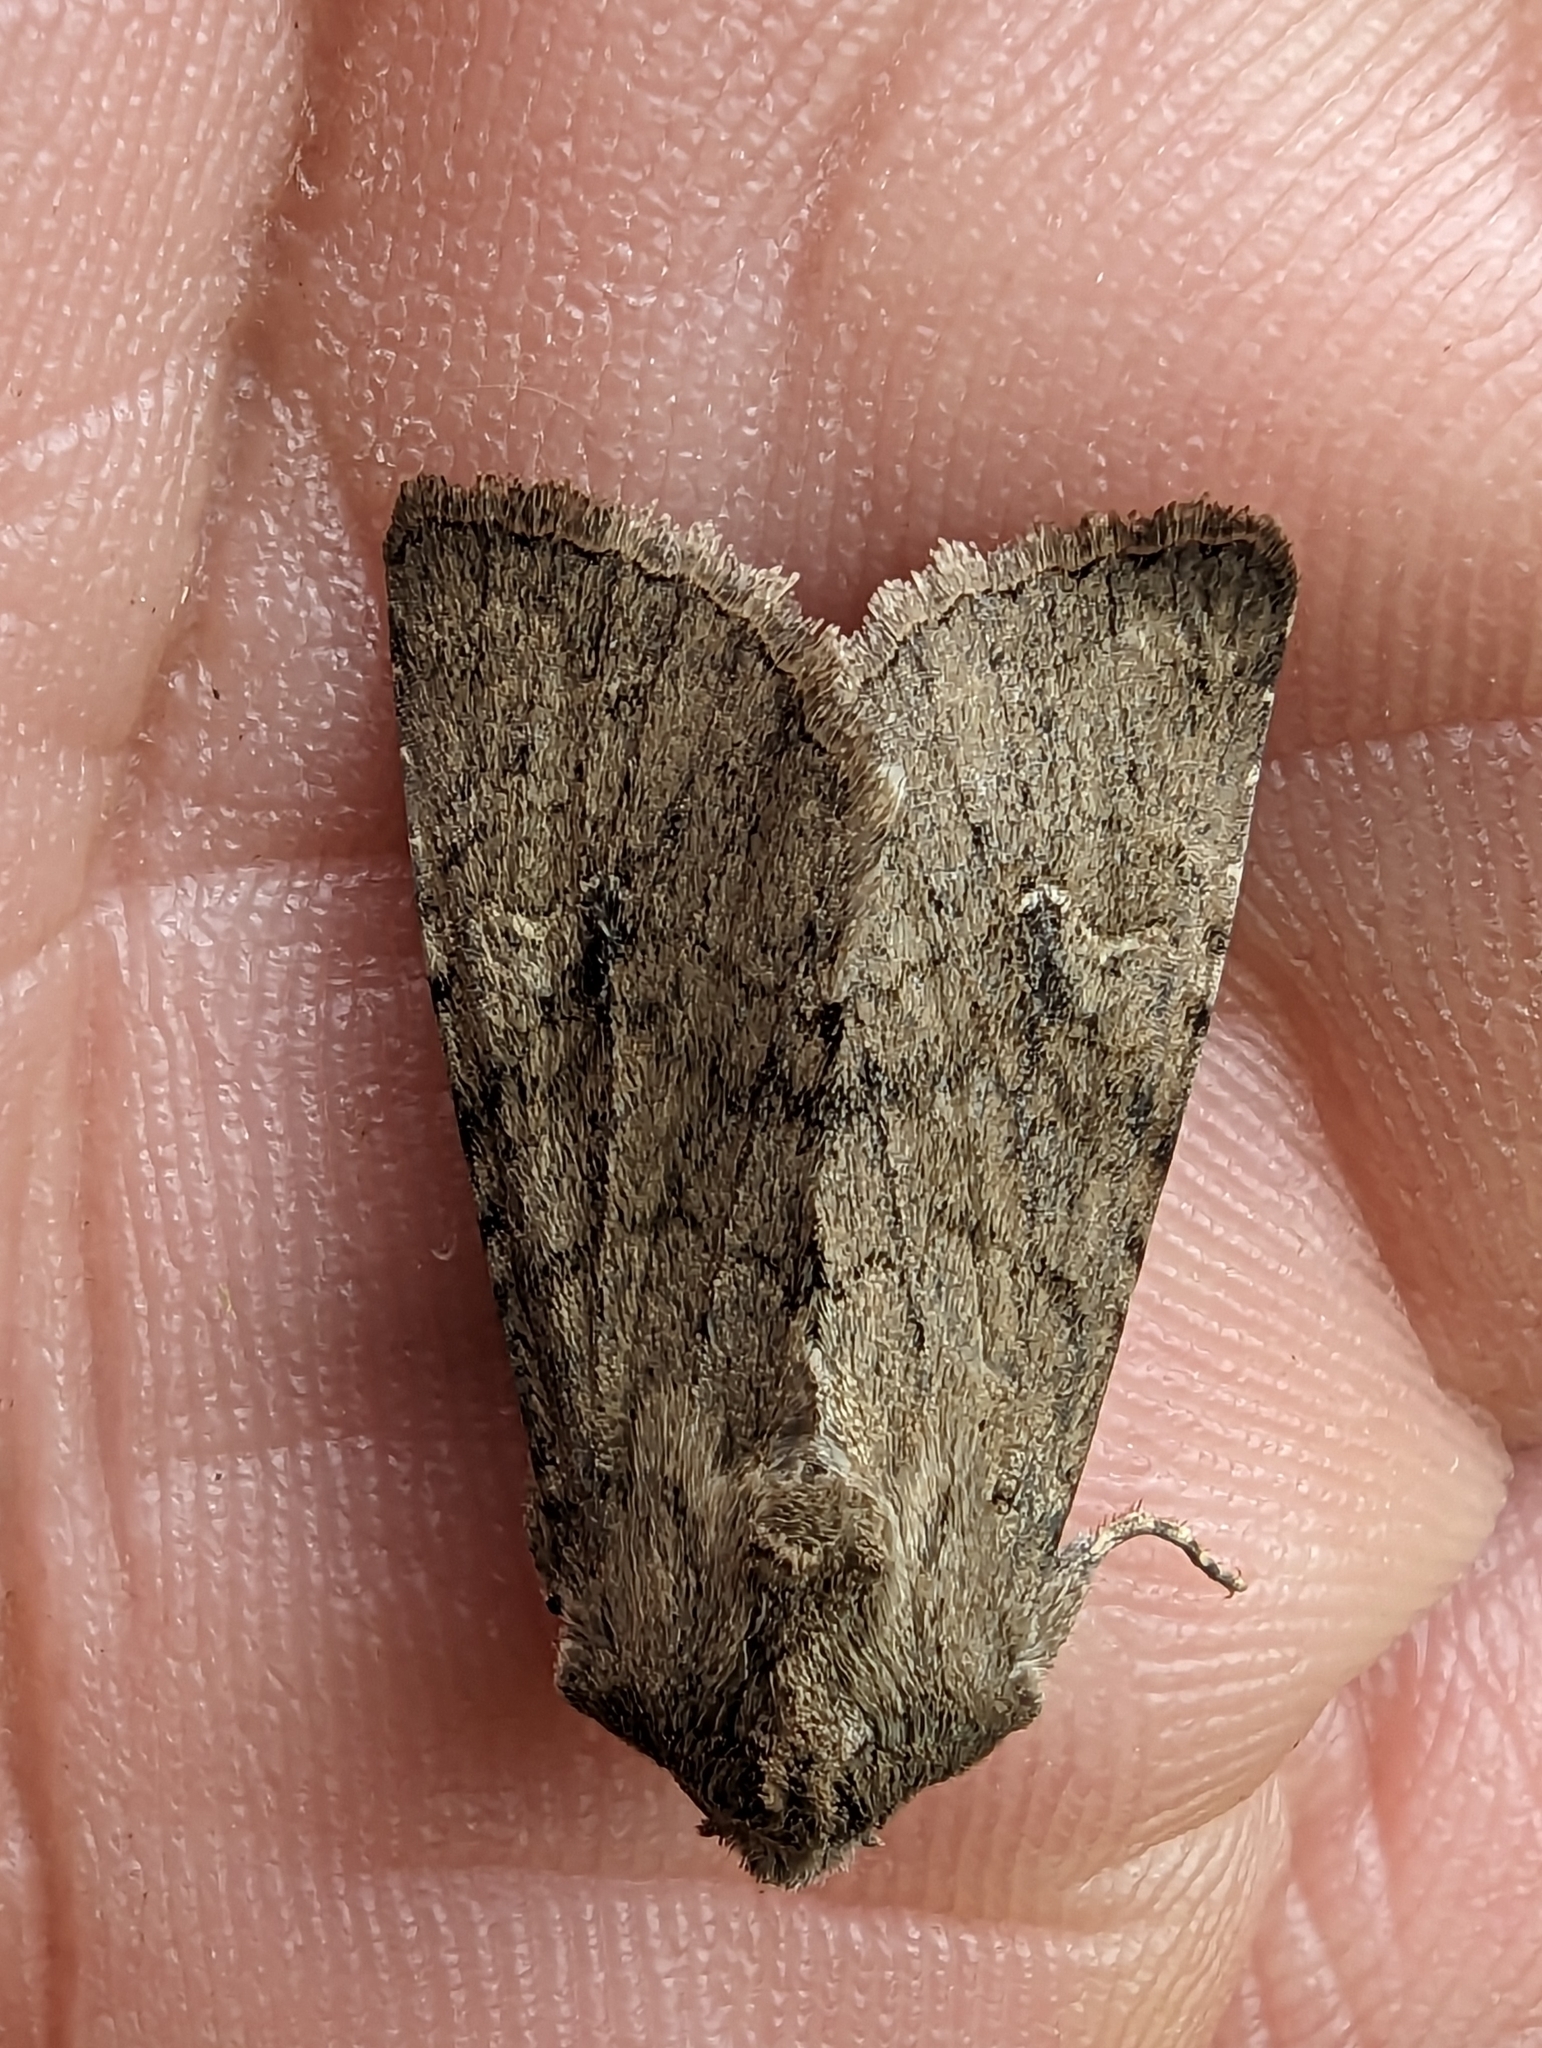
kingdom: Animalia
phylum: Arthropoda
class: Insecta
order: Lepidoptera
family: Noctuidae
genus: Apamea
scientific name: Apamea sordens
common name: Rustic shoulder-knot
